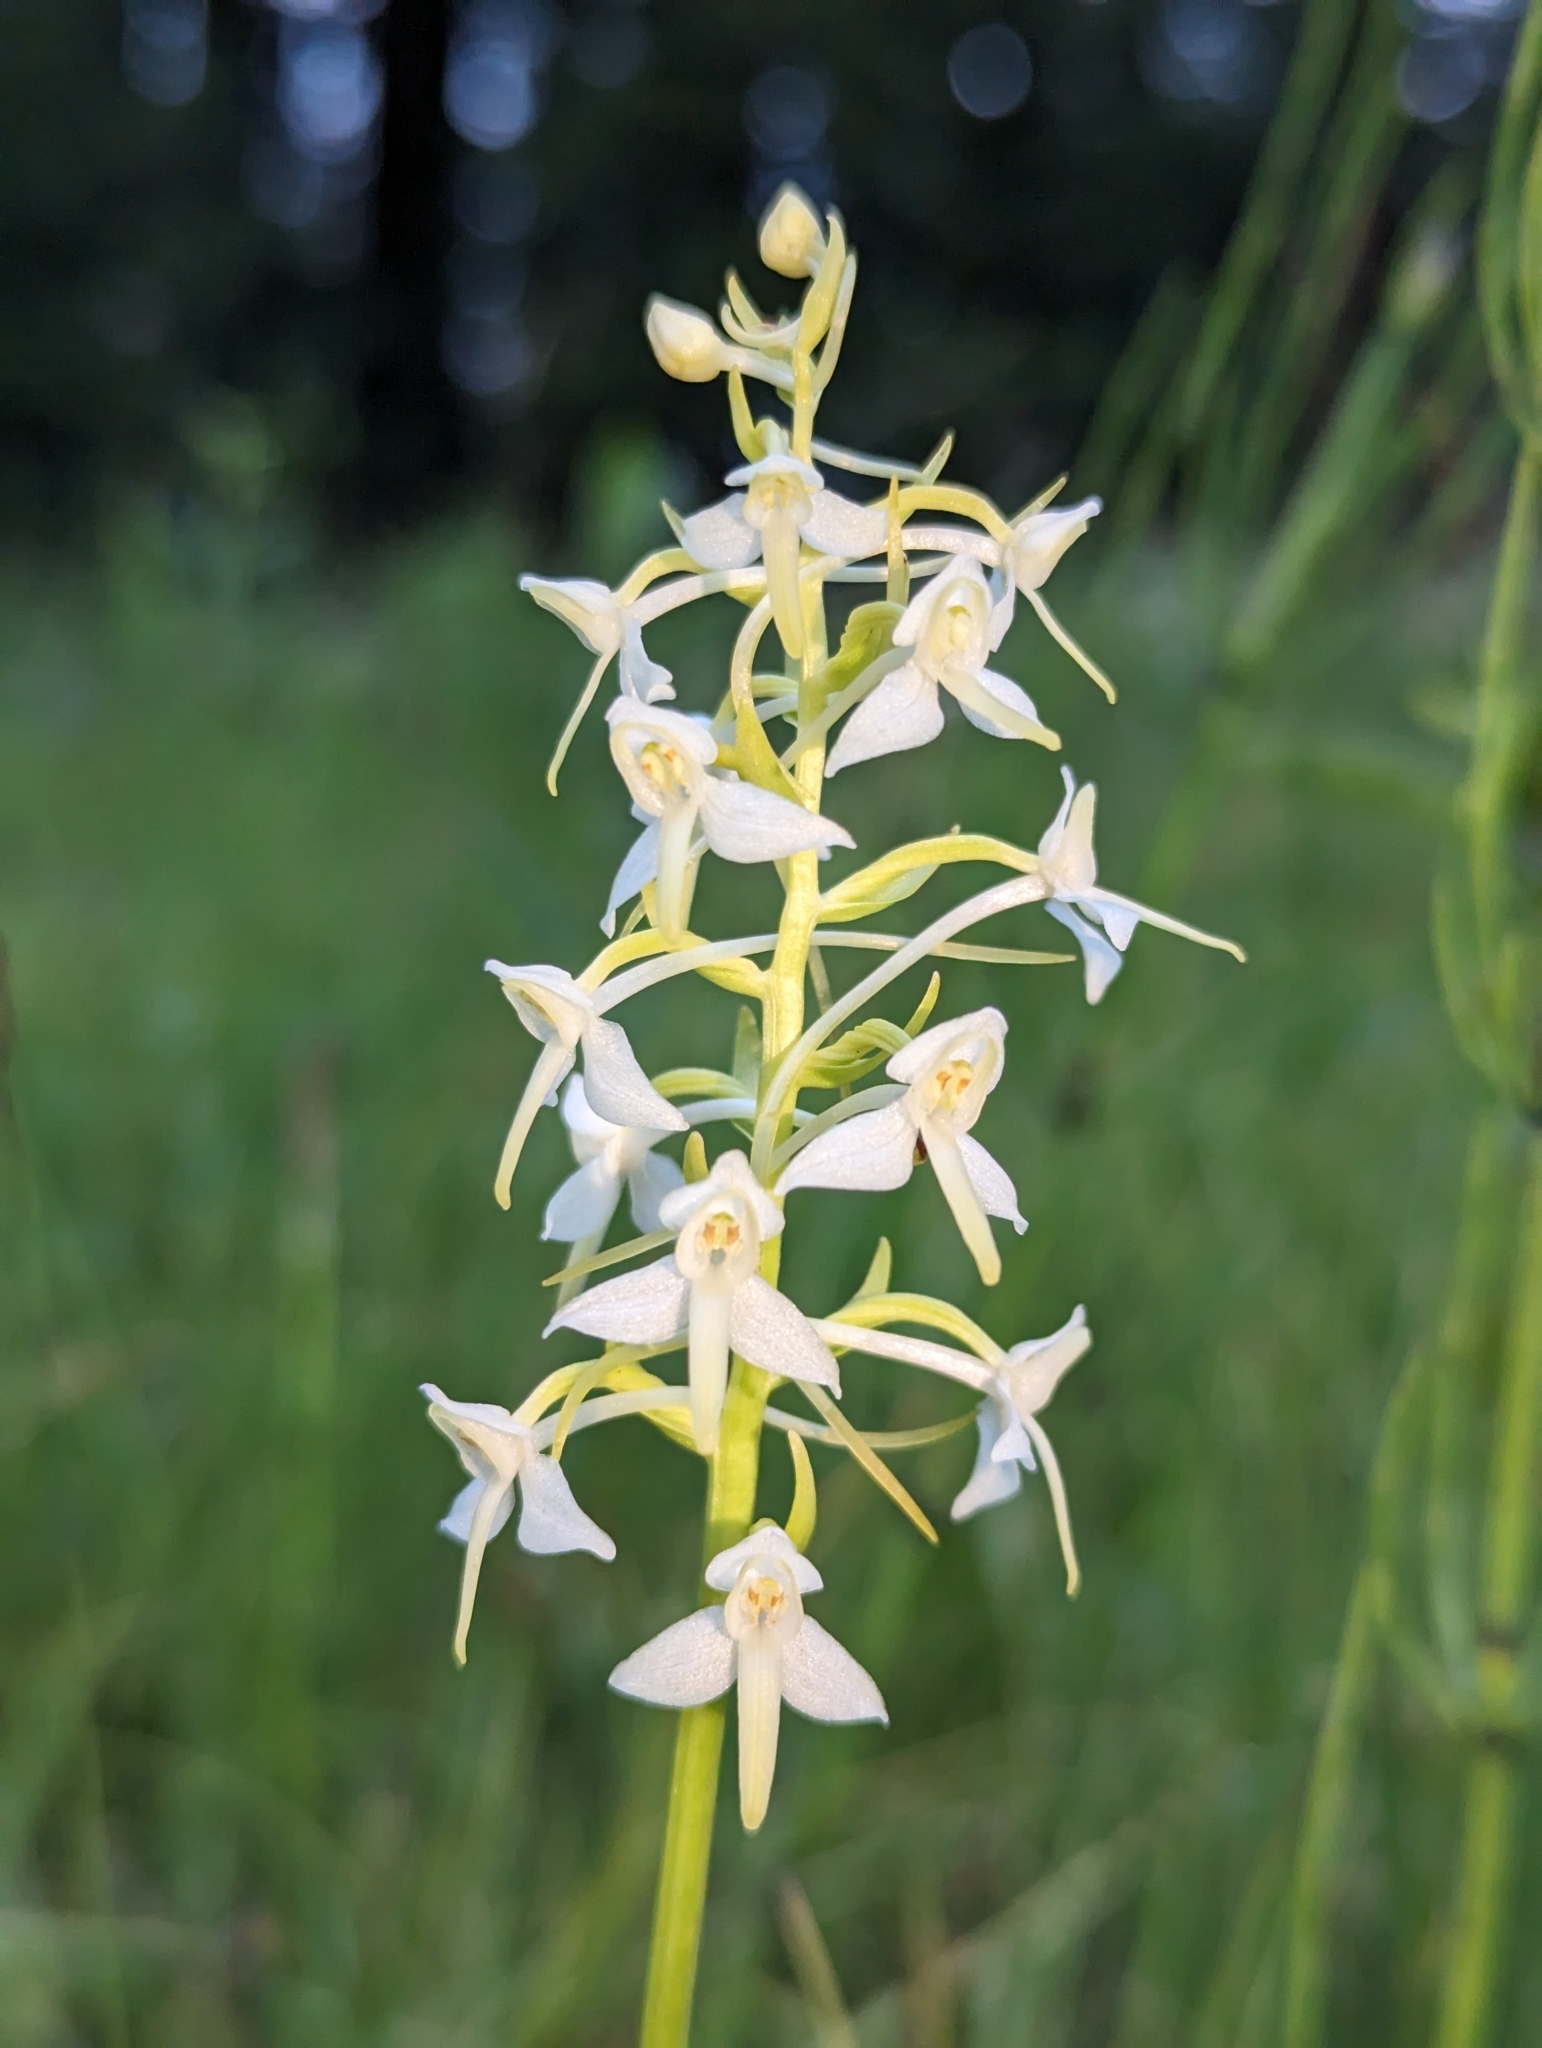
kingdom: Plantae
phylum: Tracheophyta
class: Liliopsida
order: Asparagales
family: Orchidaceae
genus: Platanthera
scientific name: Platanthera bifolia
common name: Lesser butterfly-orchid
